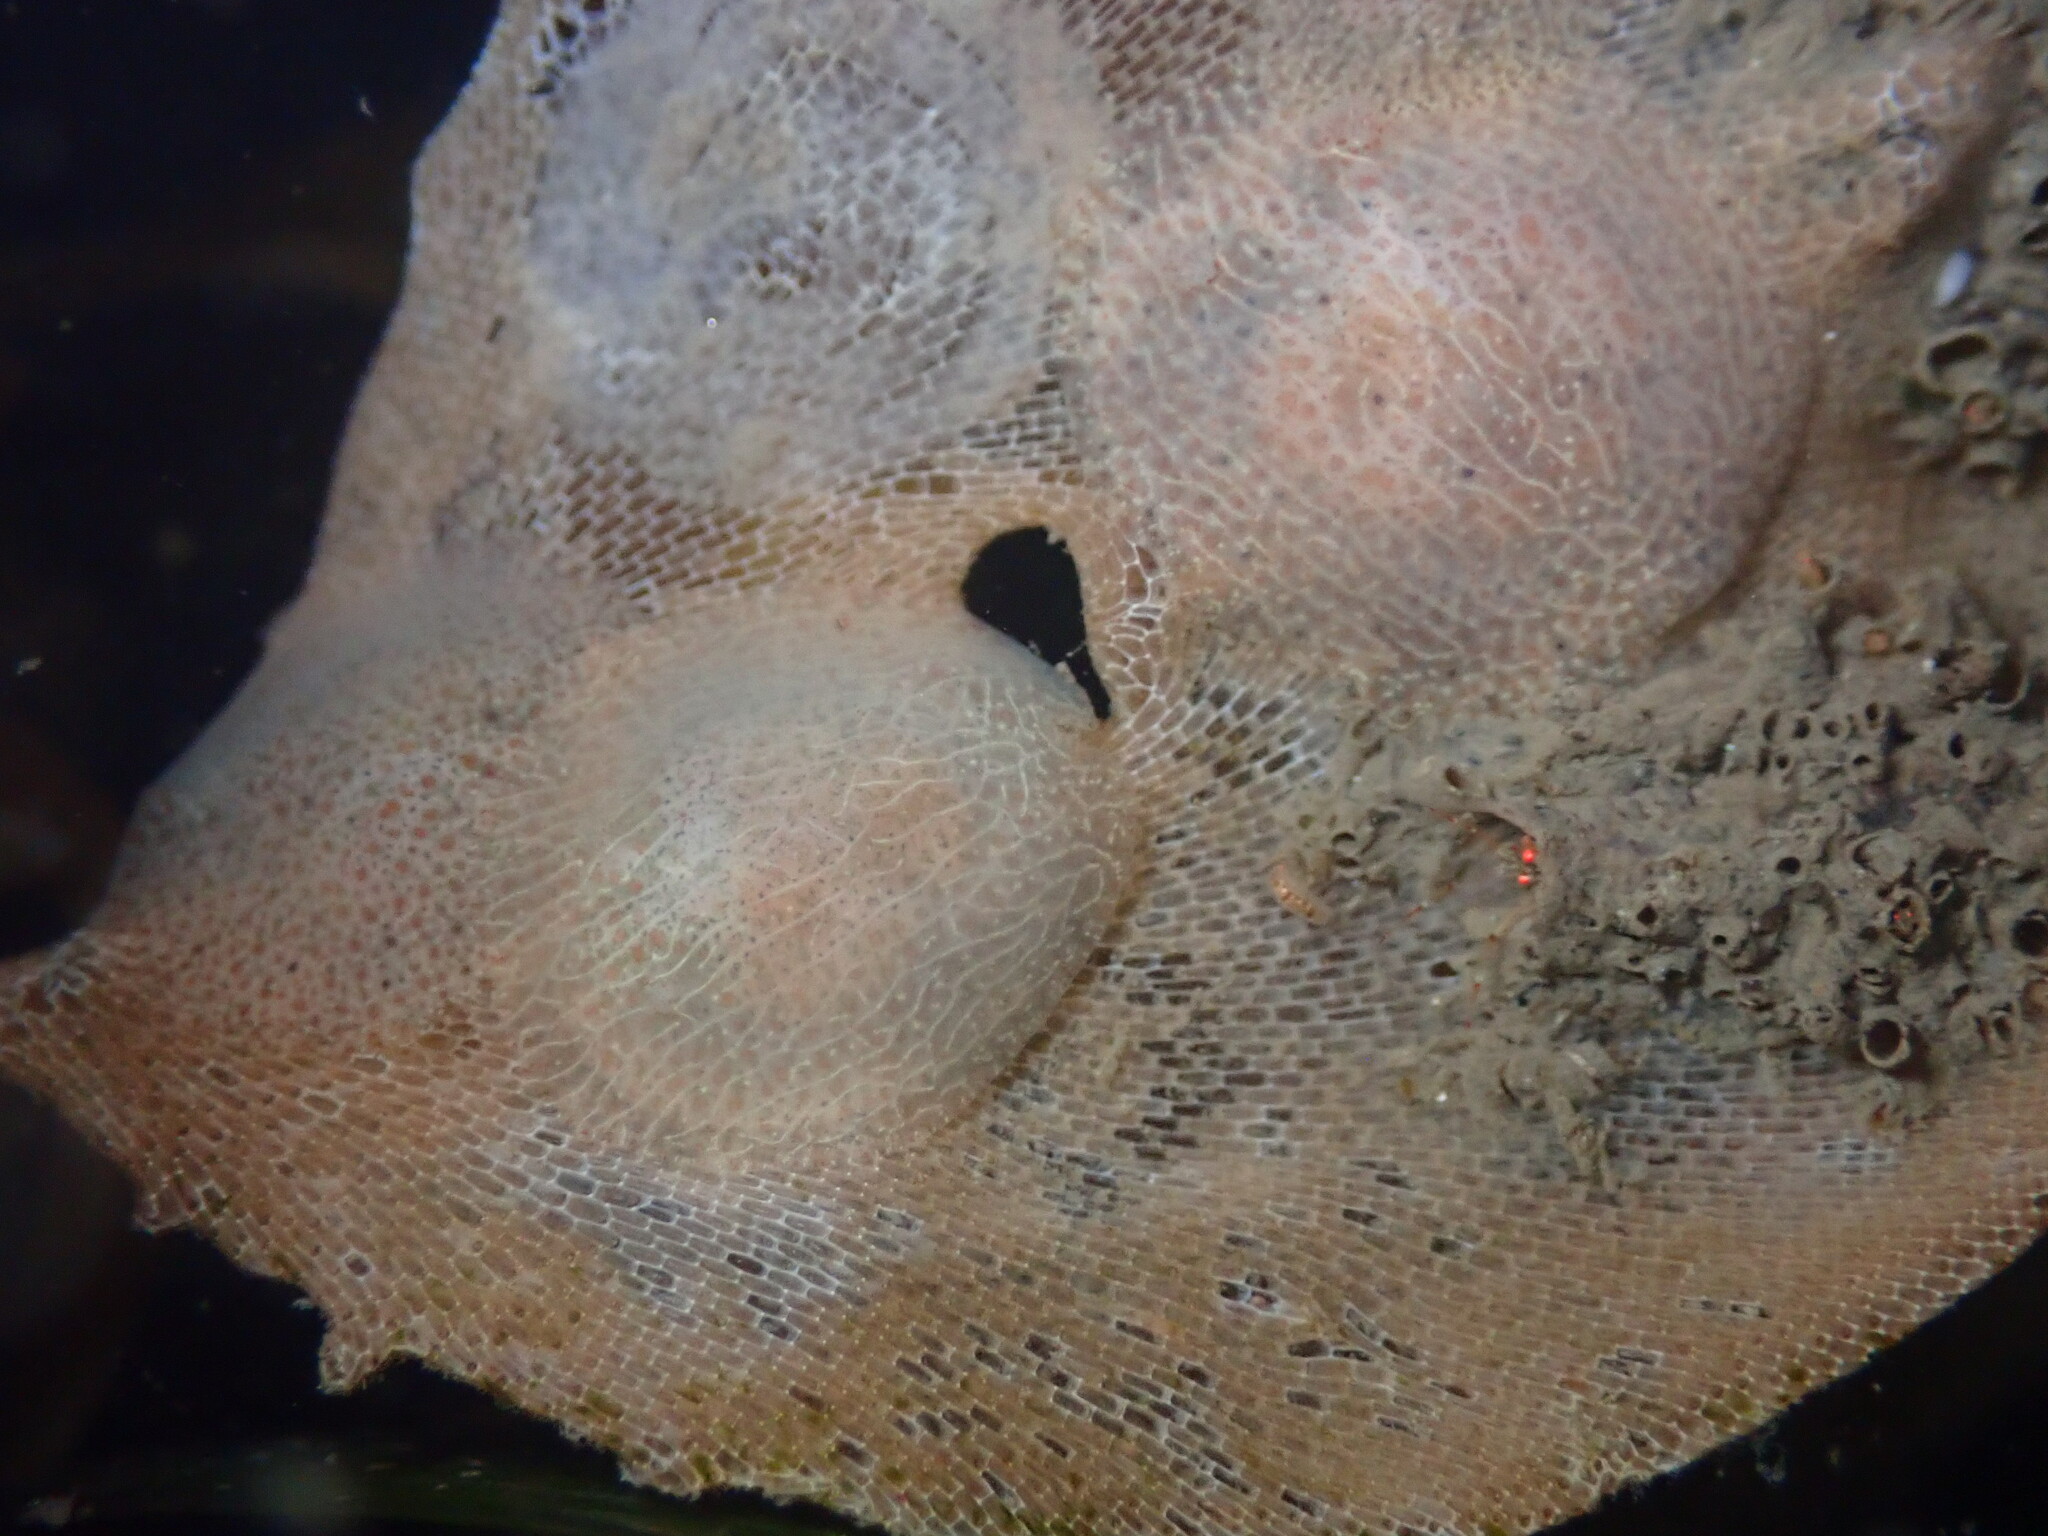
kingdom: Animalia
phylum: Mollusca
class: Gastropoda
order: Nudibranchia
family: Corambidae
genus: Corambe
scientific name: Corambe pacifica
